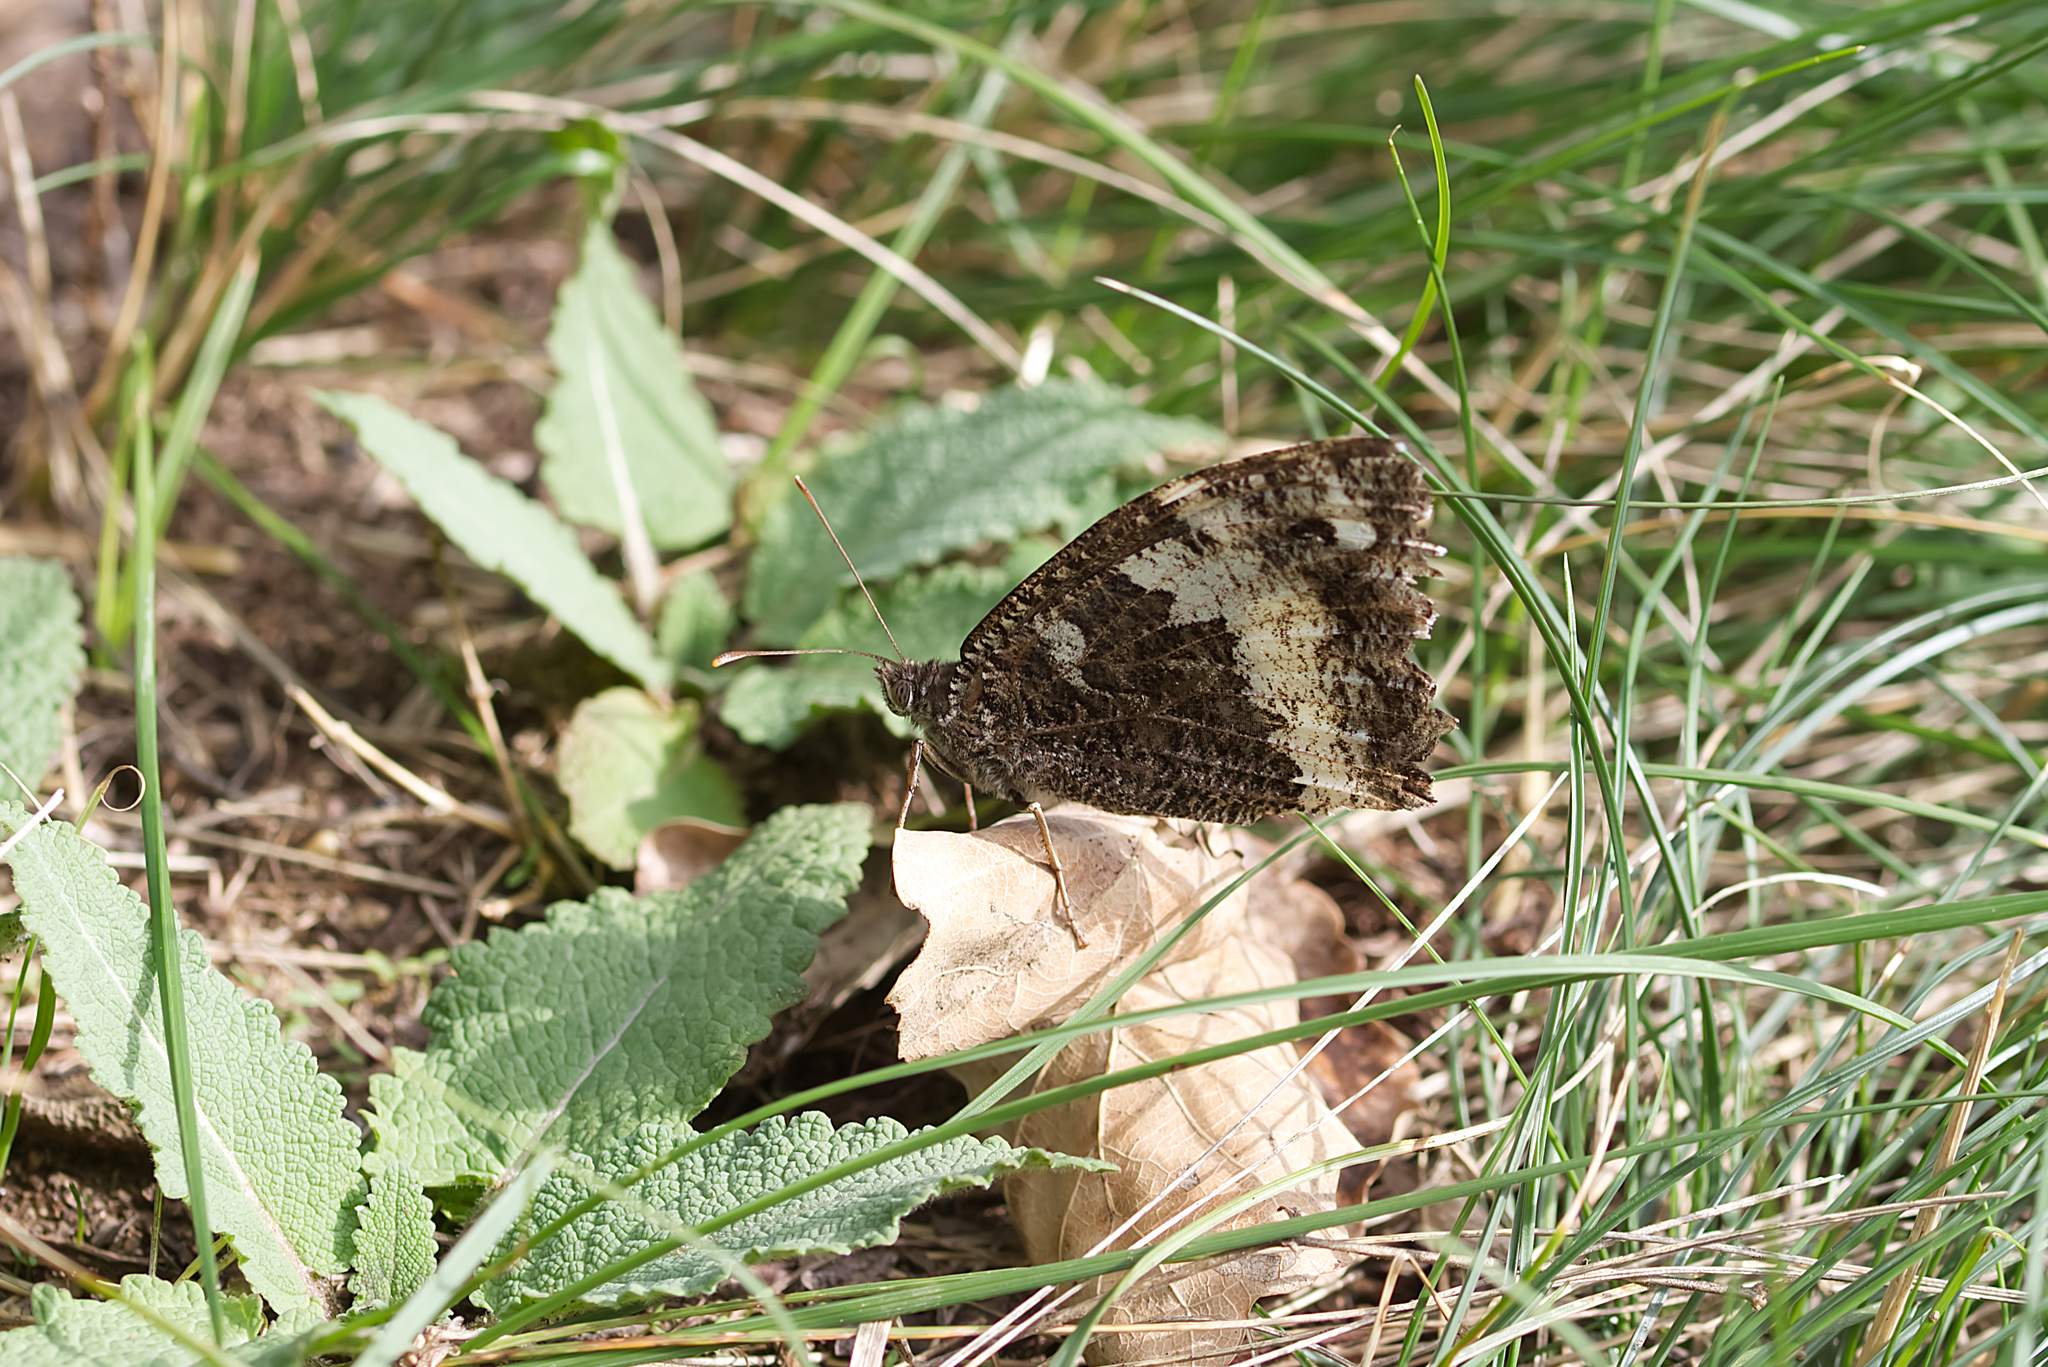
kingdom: Animalia
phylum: Arthropoda
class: Insecta
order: Lepidoptera
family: Lycaenidae
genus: Loweia
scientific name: Loweia tityrus
